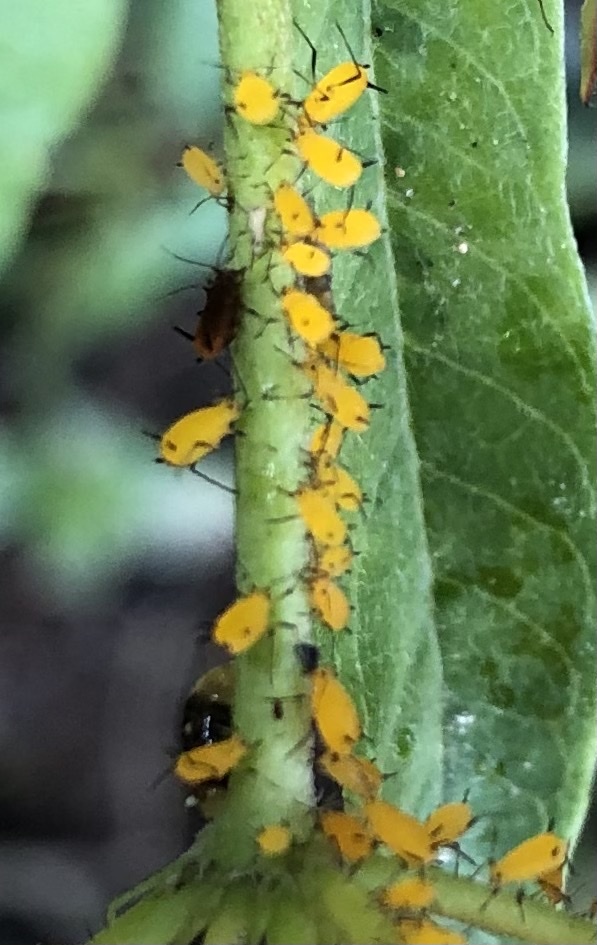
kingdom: Animalia
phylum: Arthropoda
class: Insecta
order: Hemiptera
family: Aphididae
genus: Aphis
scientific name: Aphis nerii
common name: Oleander aphid
